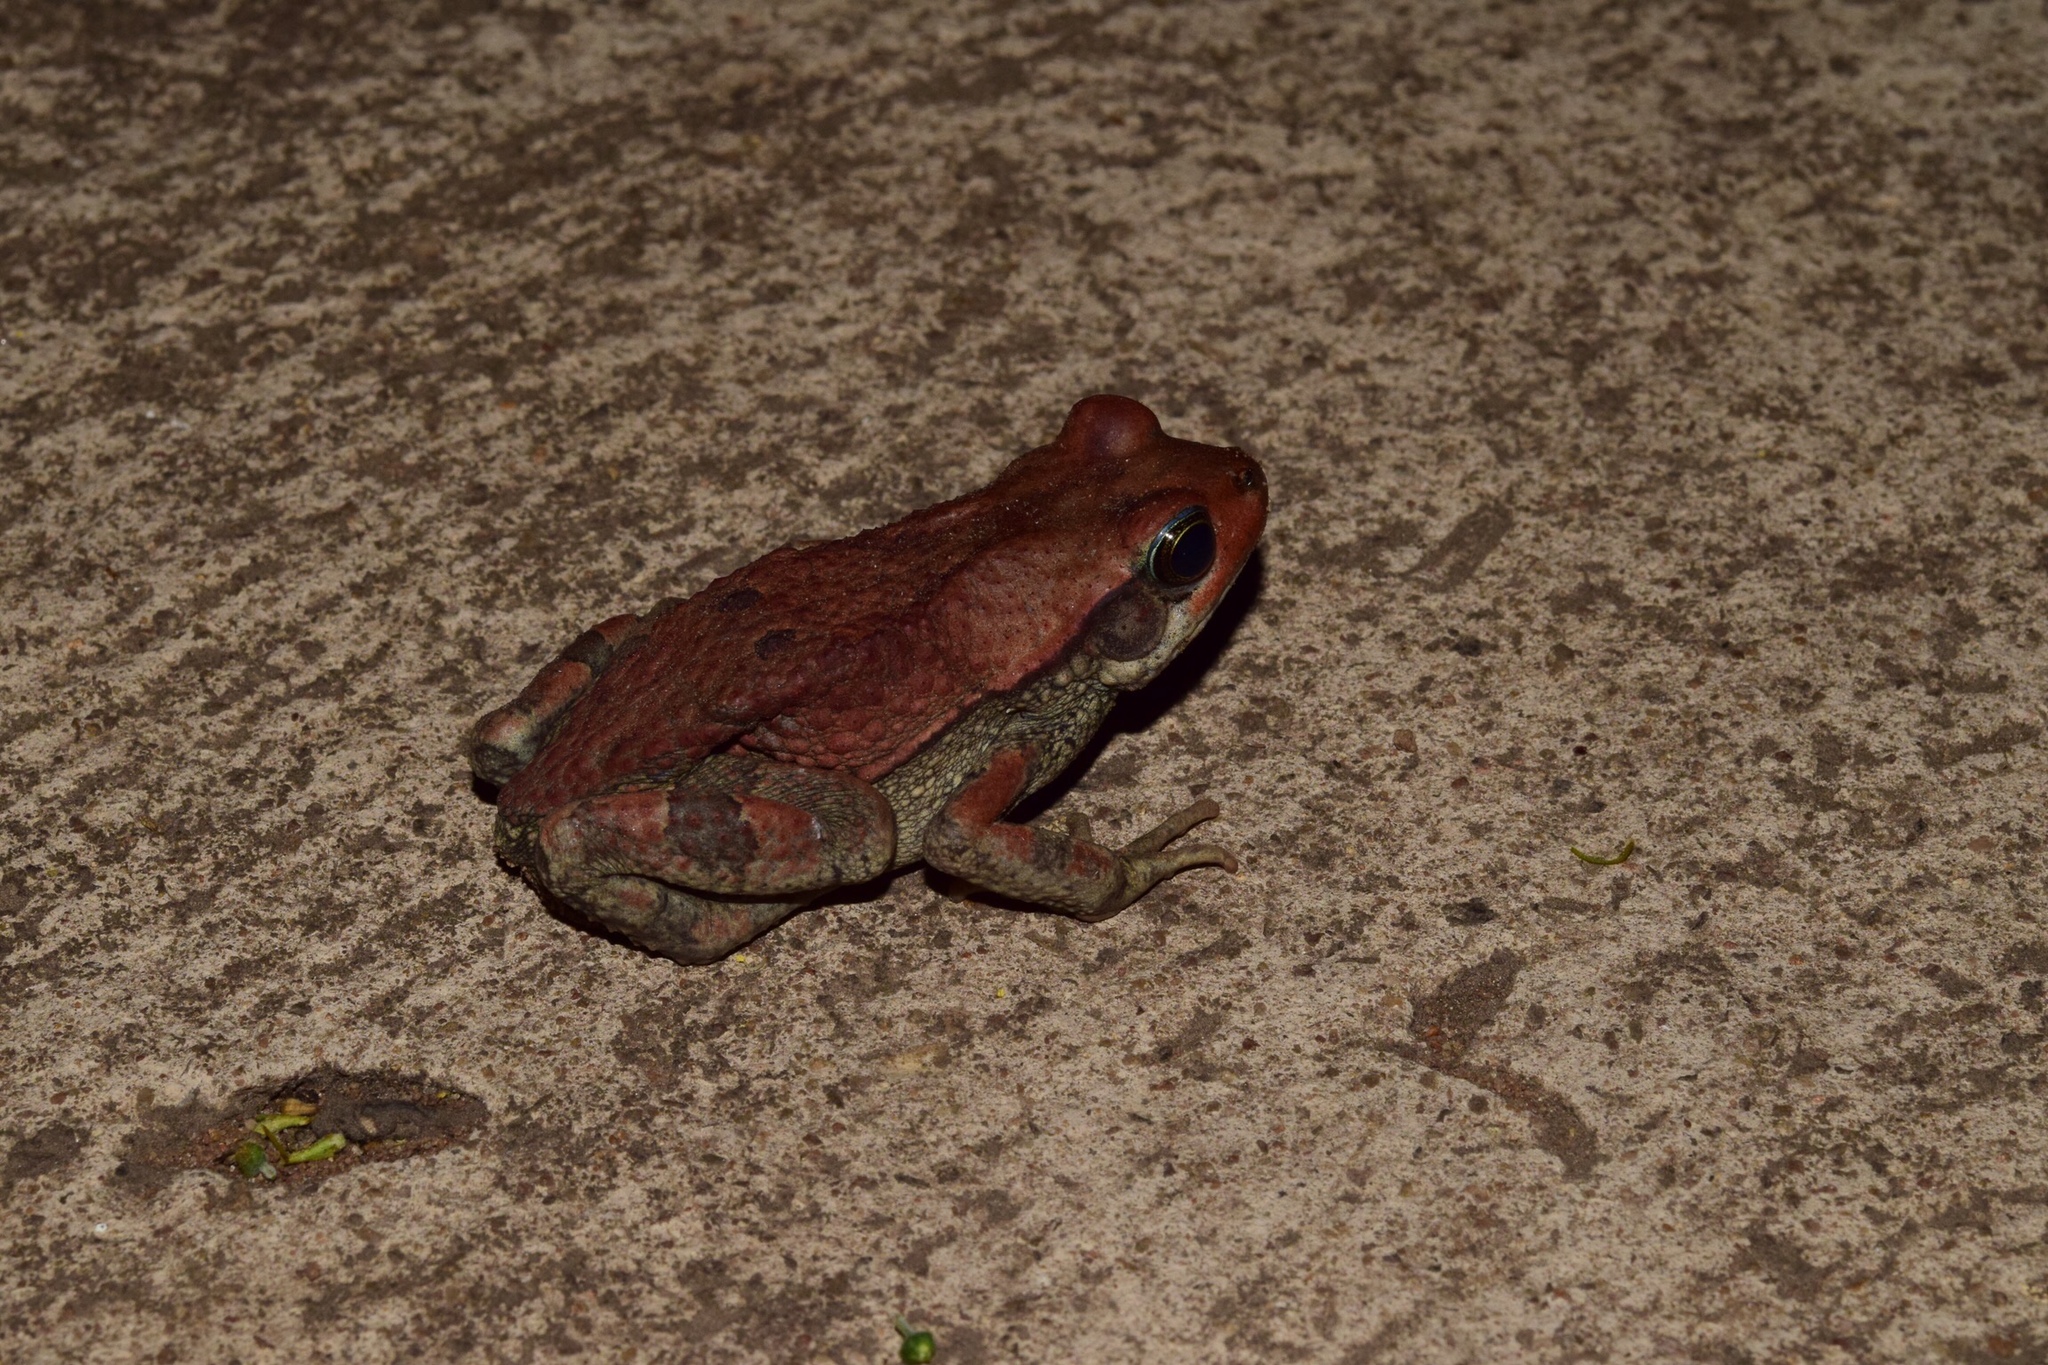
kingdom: Animalia
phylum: Chordata
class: Amphibia
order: Anura
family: Bufonidae
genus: Schismaderma
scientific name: Schismaderma carens
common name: African split-skin toad
